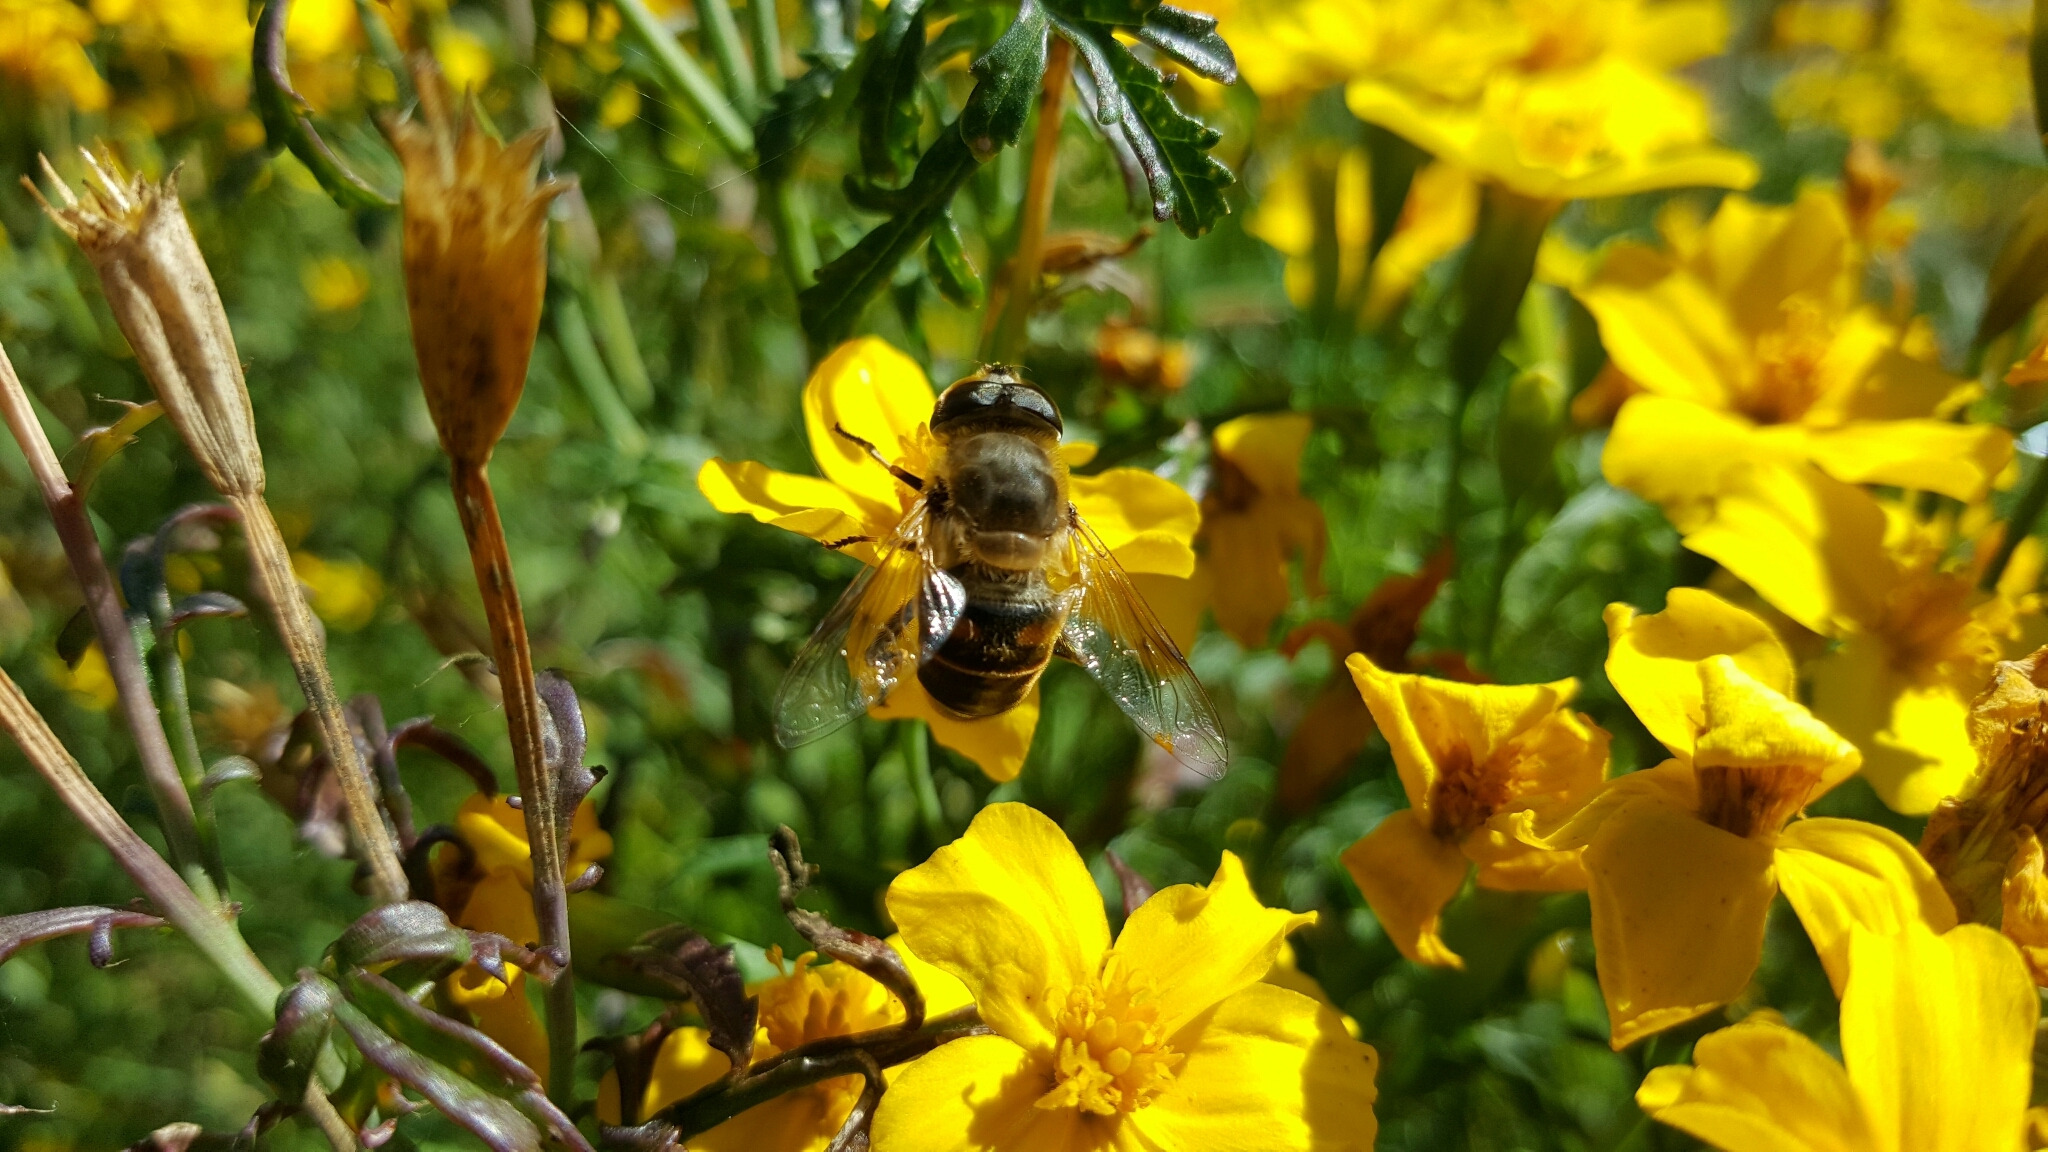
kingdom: Animalia
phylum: Arthropoda
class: Insecta
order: Diptera
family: Syrphidae
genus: Eristalis
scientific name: Eristalis tenax
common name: Drone fly
